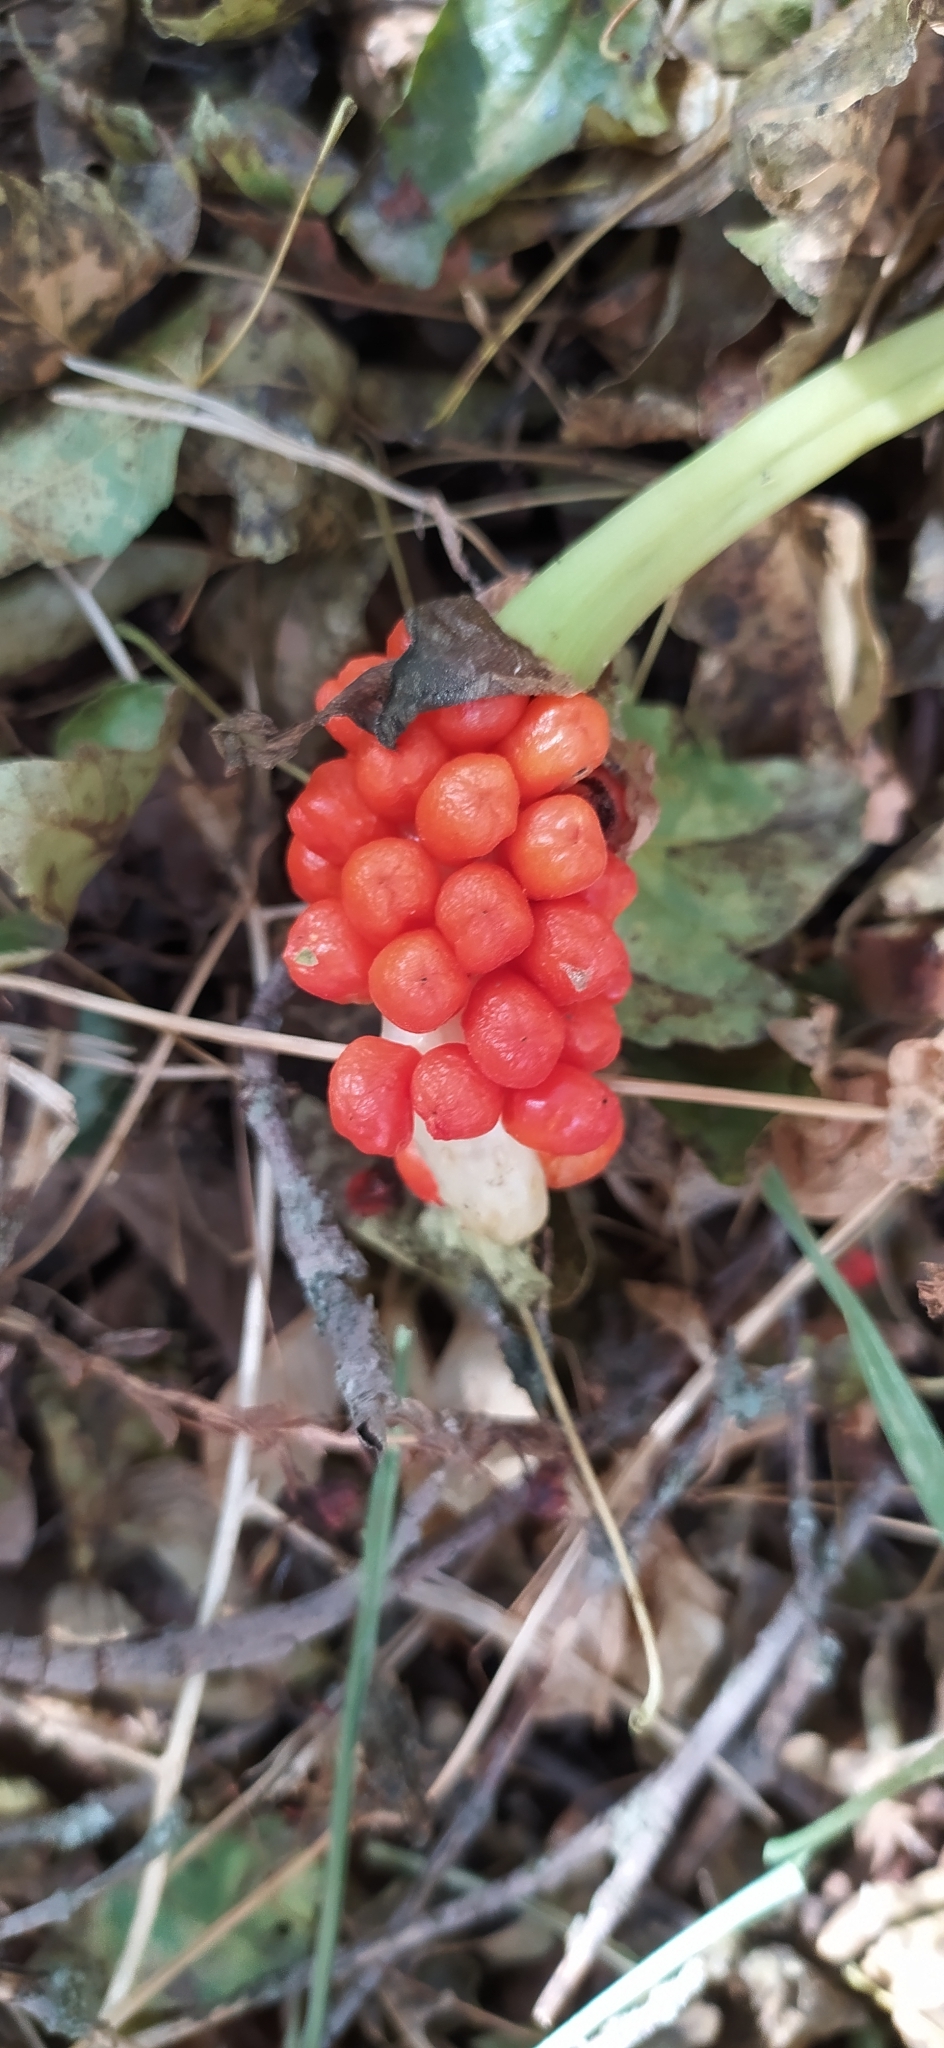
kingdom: Plantae
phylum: Tracheophyta
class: Liliopsida
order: Alismatales
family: Araceae
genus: Arum
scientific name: Arum korolkowii
